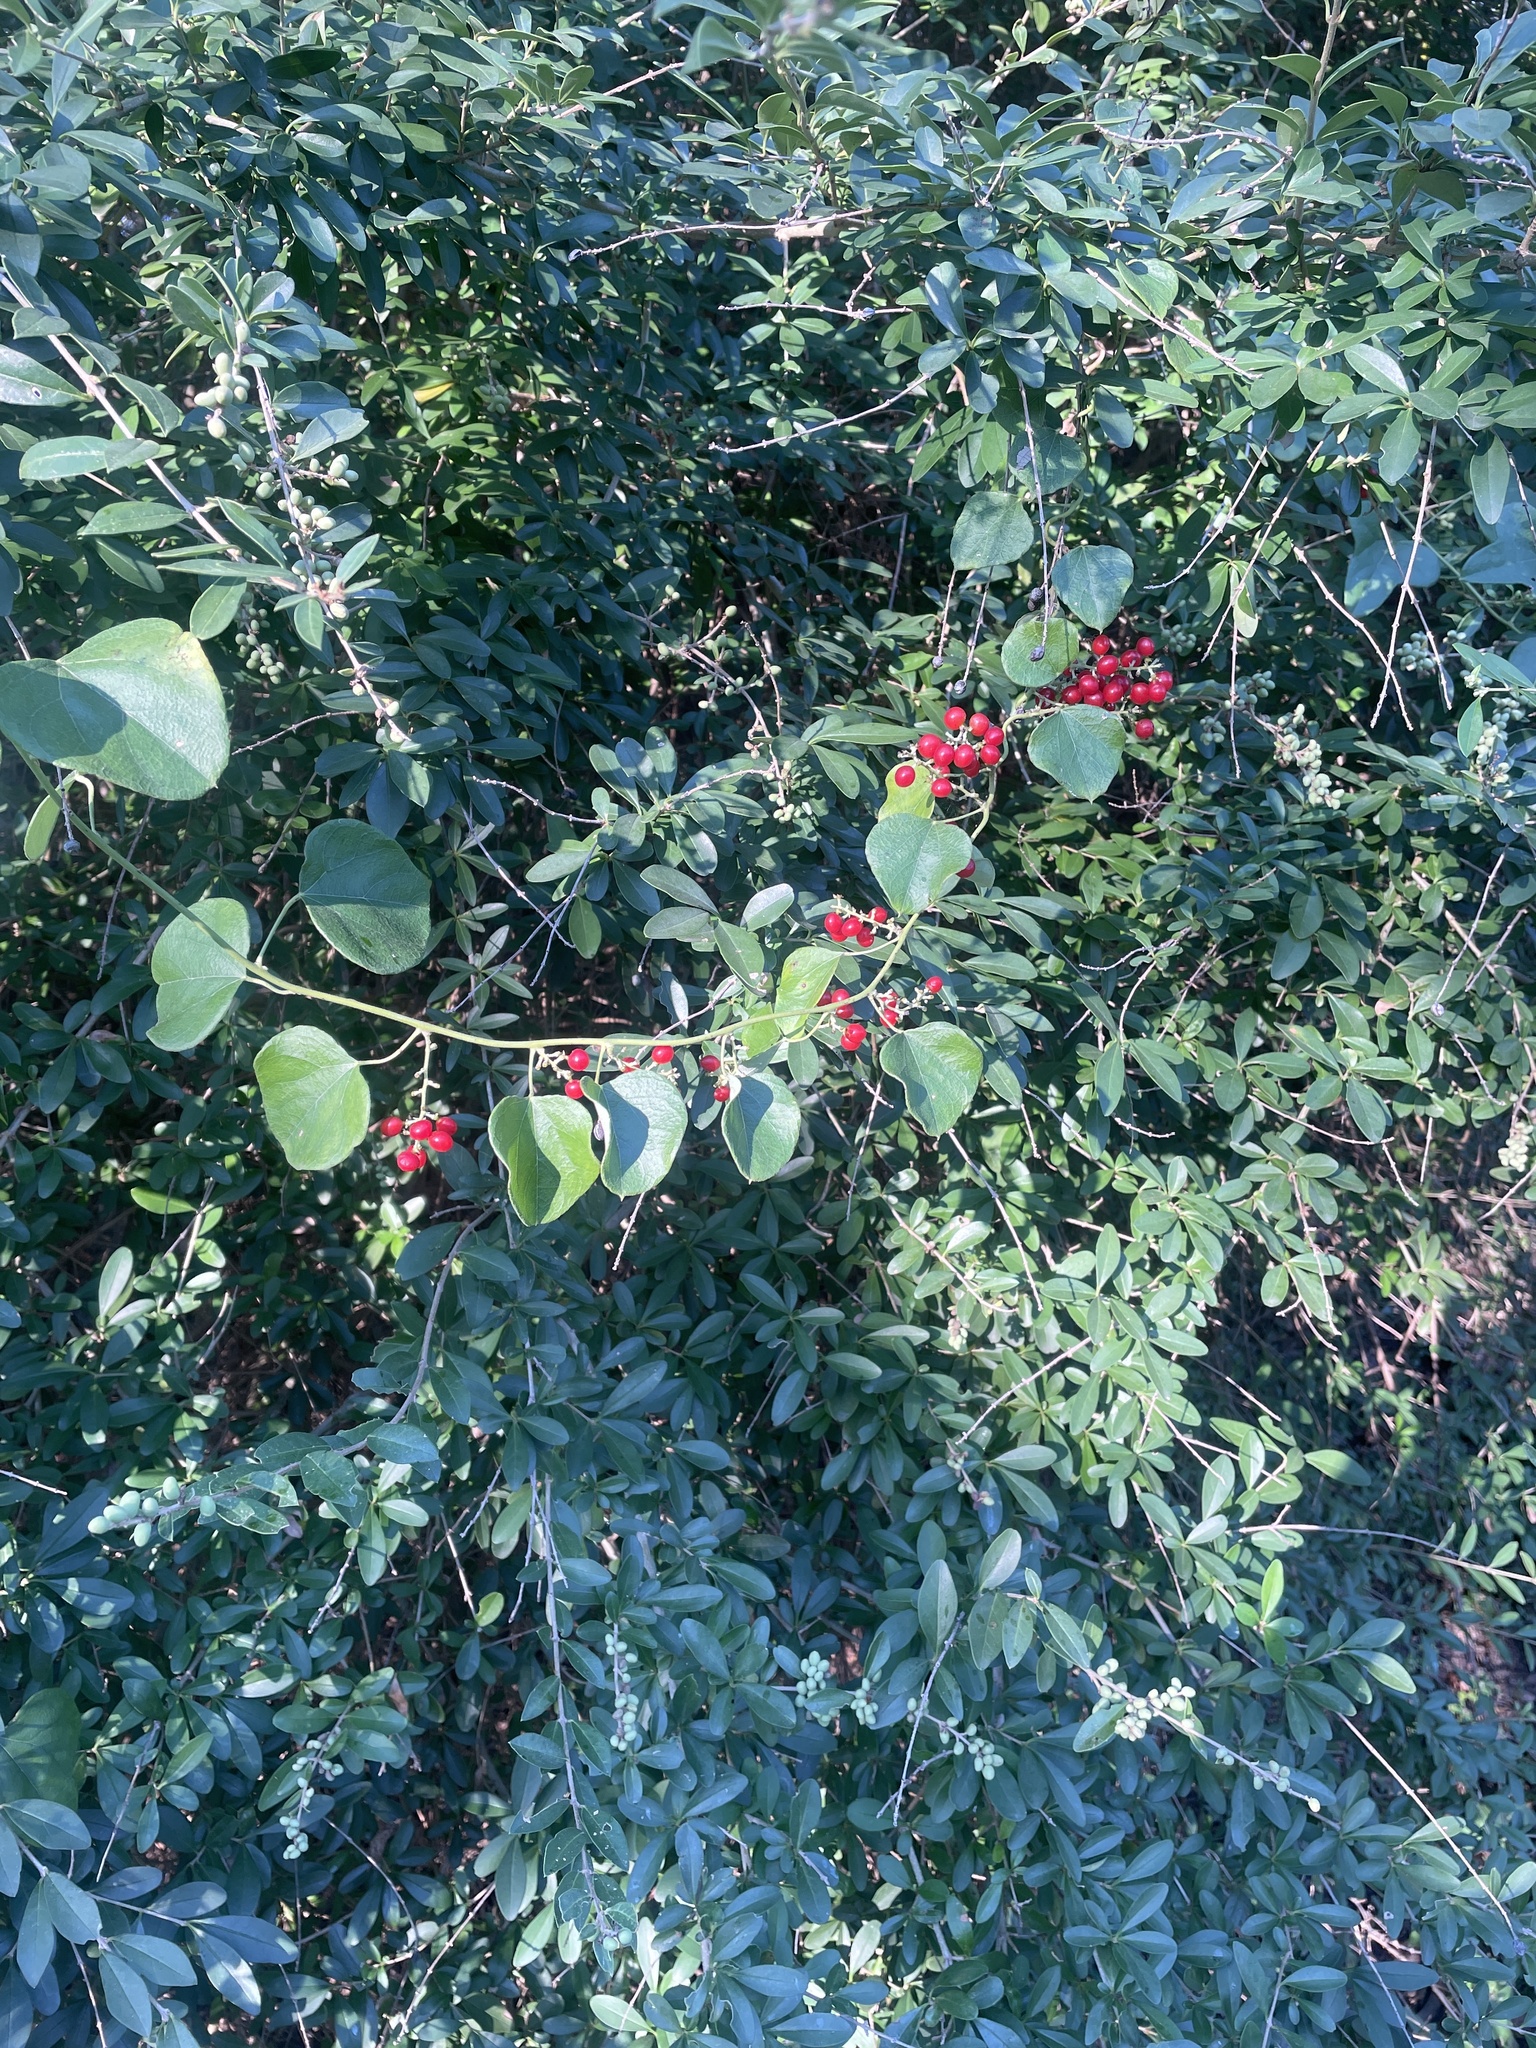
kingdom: Plantae
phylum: Tracheophyta
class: Magnoliopsida
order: Ranunculales
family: Menispermaceae
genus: Cocculus
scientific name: Cocculus carolinus
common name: Carolina moonseed
